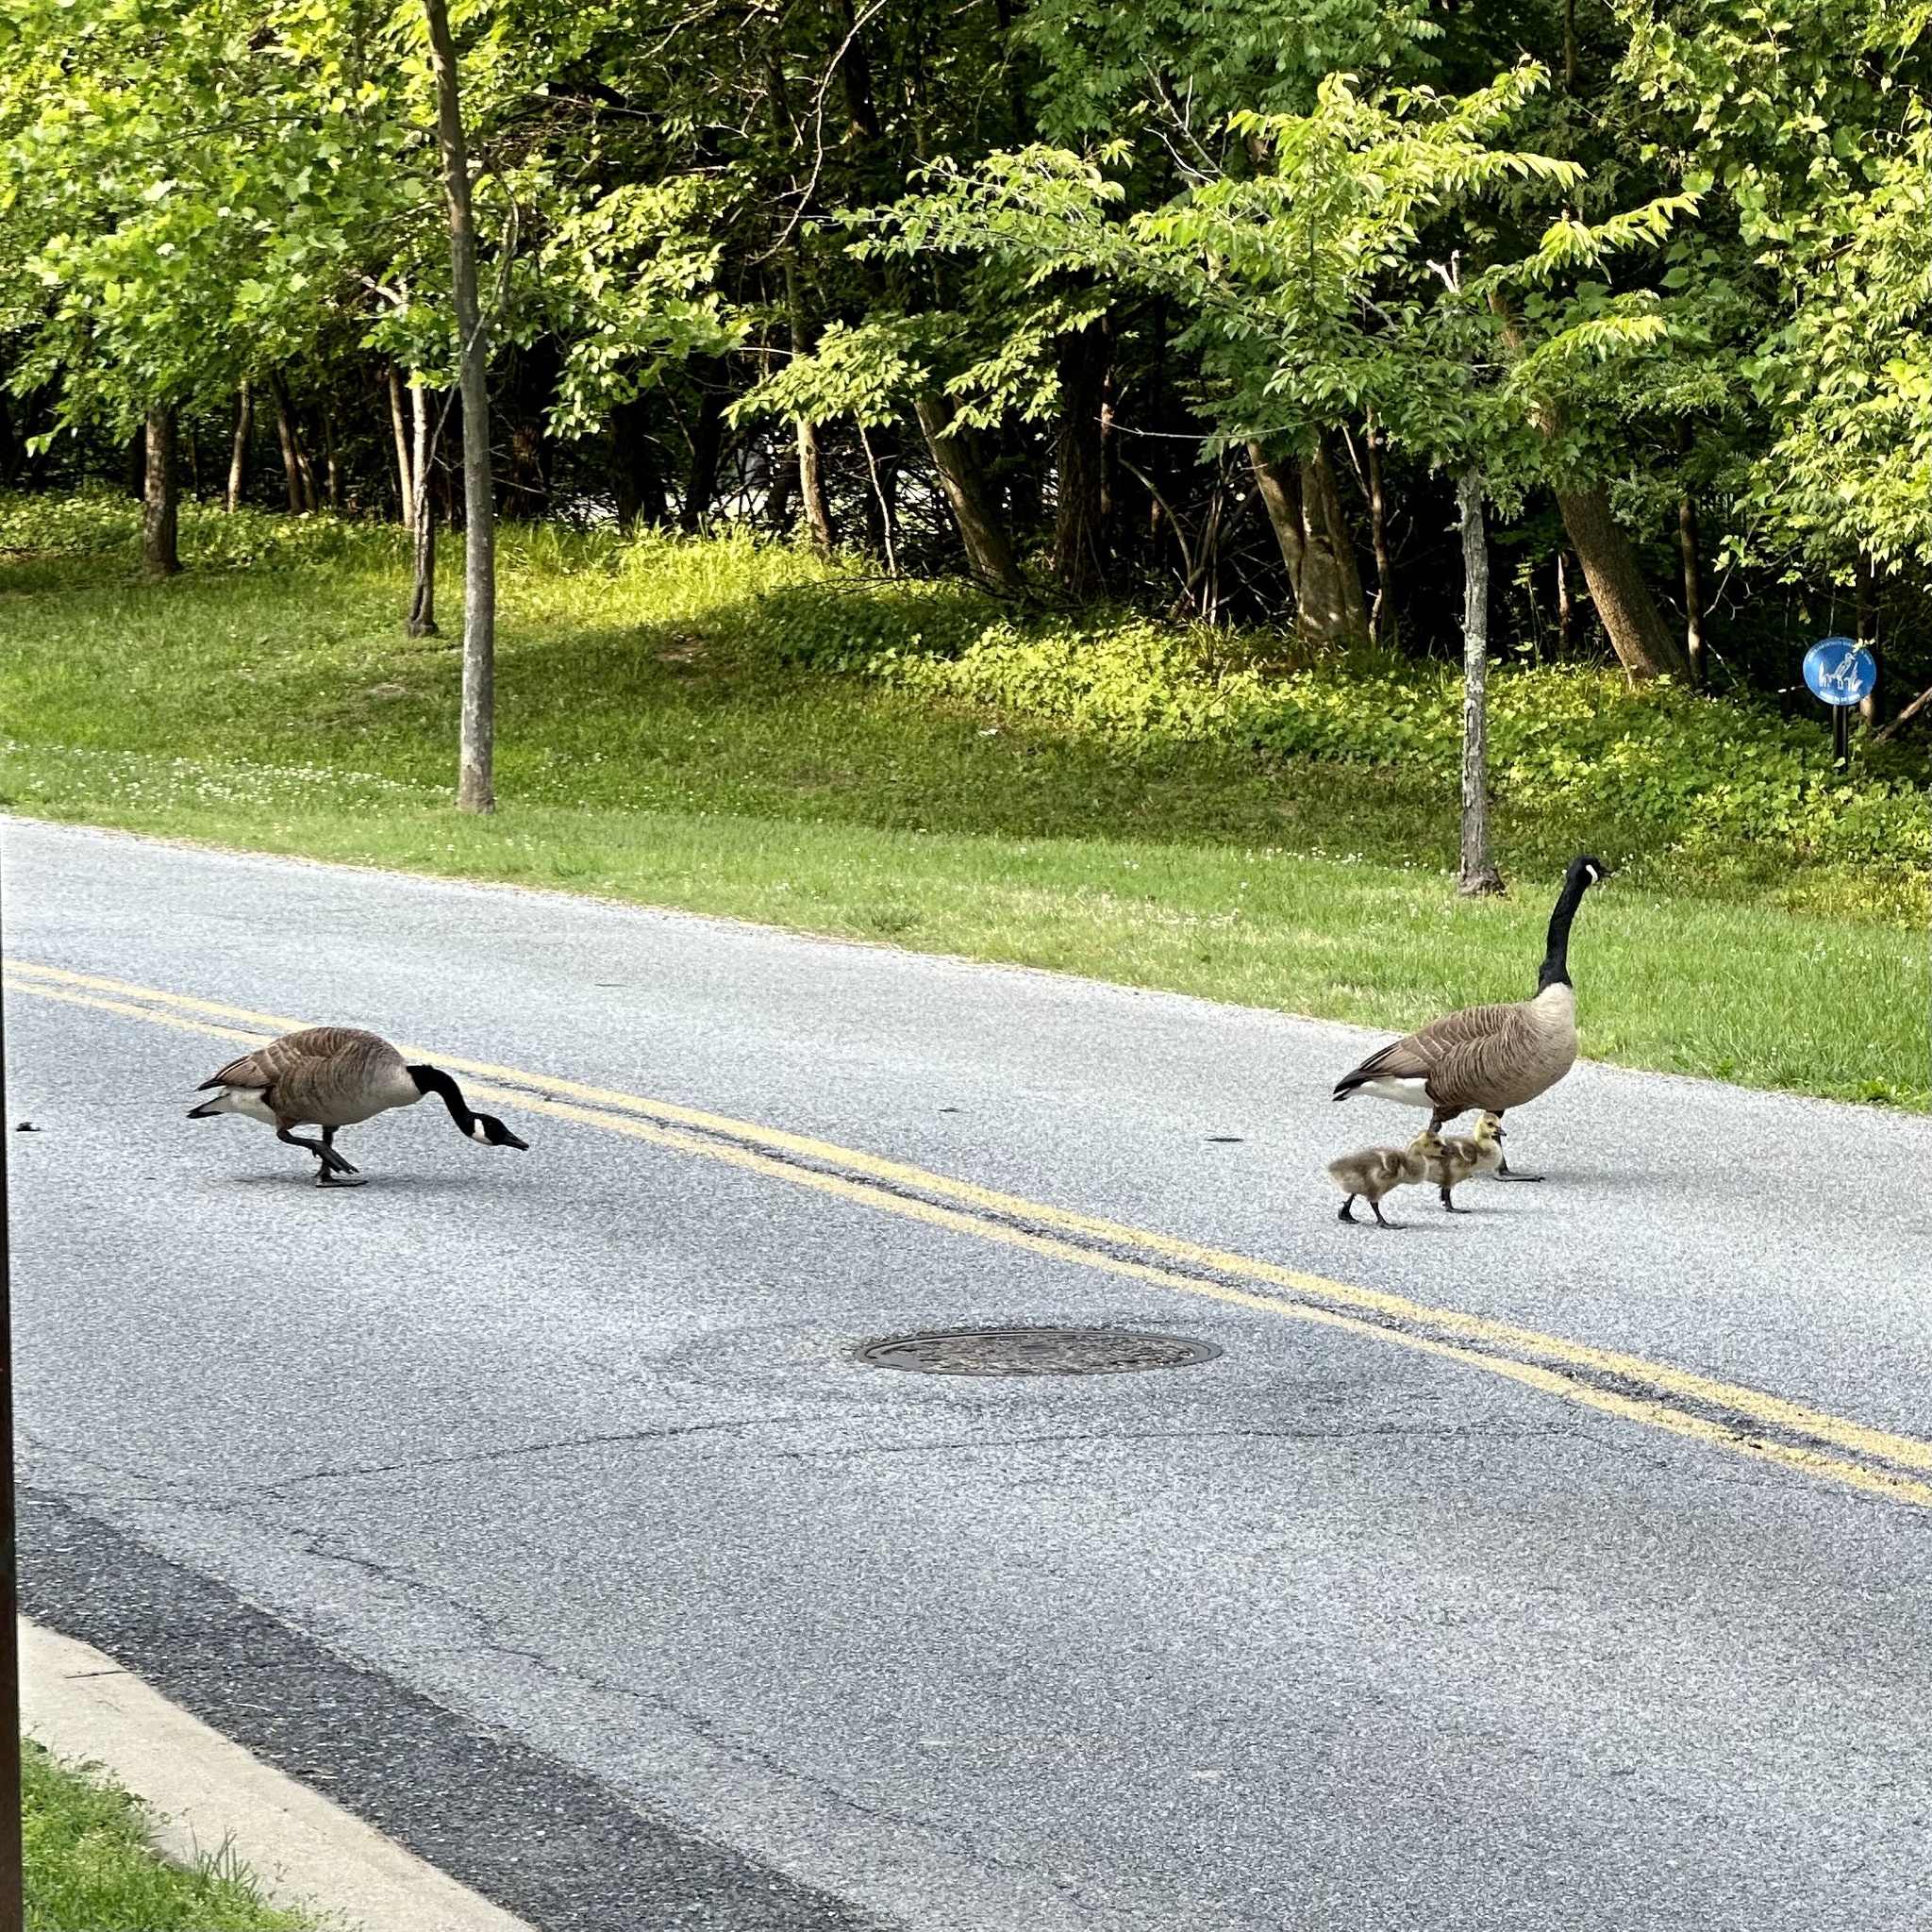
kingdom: Animalia
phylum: Chordata
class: Aves
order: Anseriformes
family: Anatidae
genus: Branta
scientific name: Branta canadensis
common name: Canada goose
